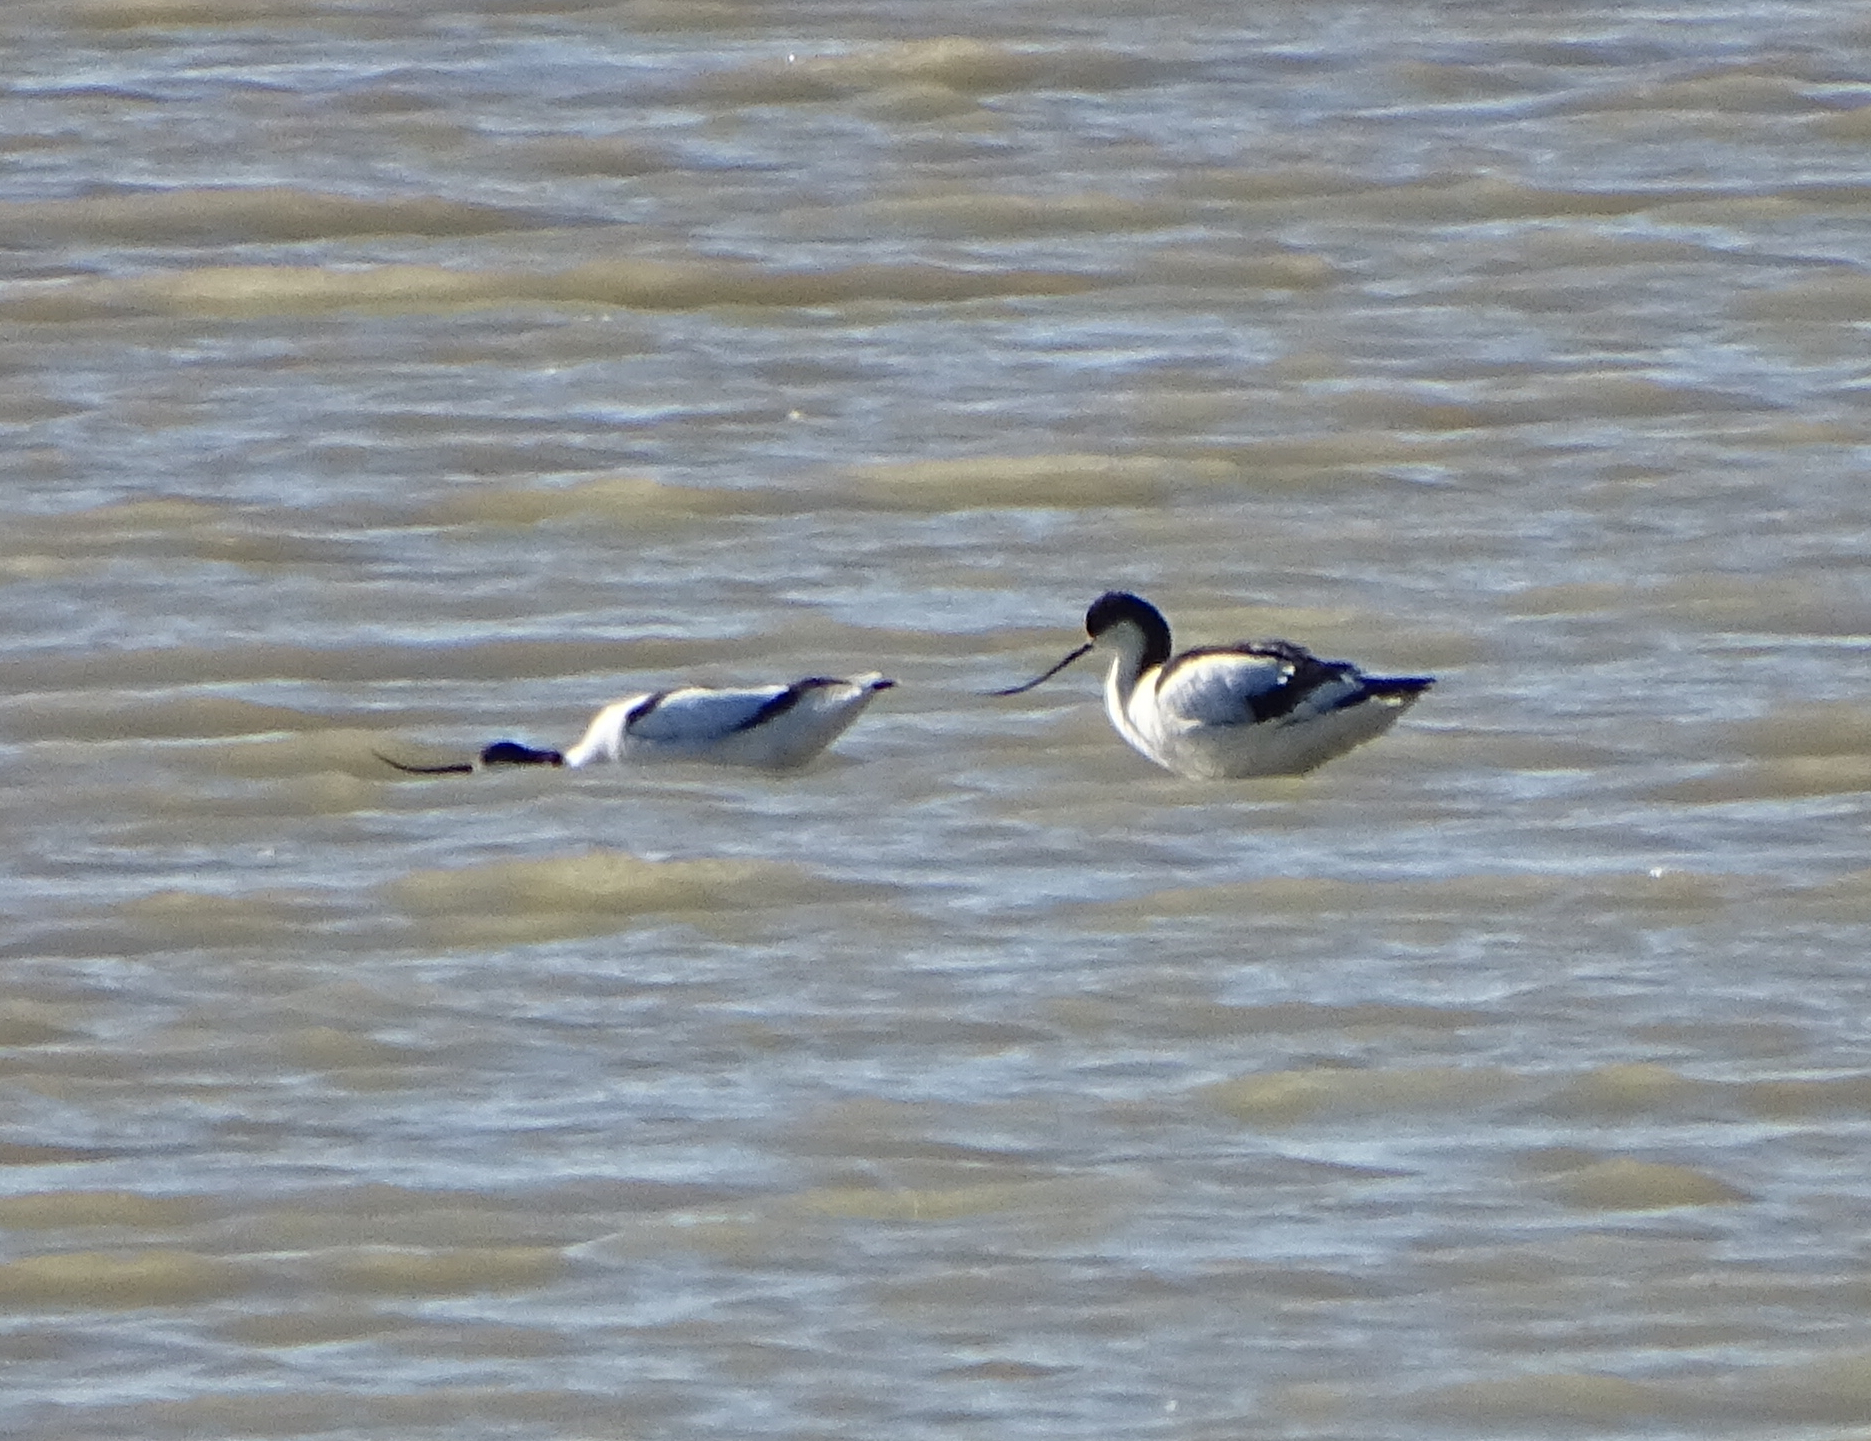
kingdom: Animalia
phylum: Chordata
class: Aves
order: Charadriiformes
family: Recurvirostridae
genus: Recurvirostra
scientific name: Recurvirostra avosetta
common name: Pied avocet
